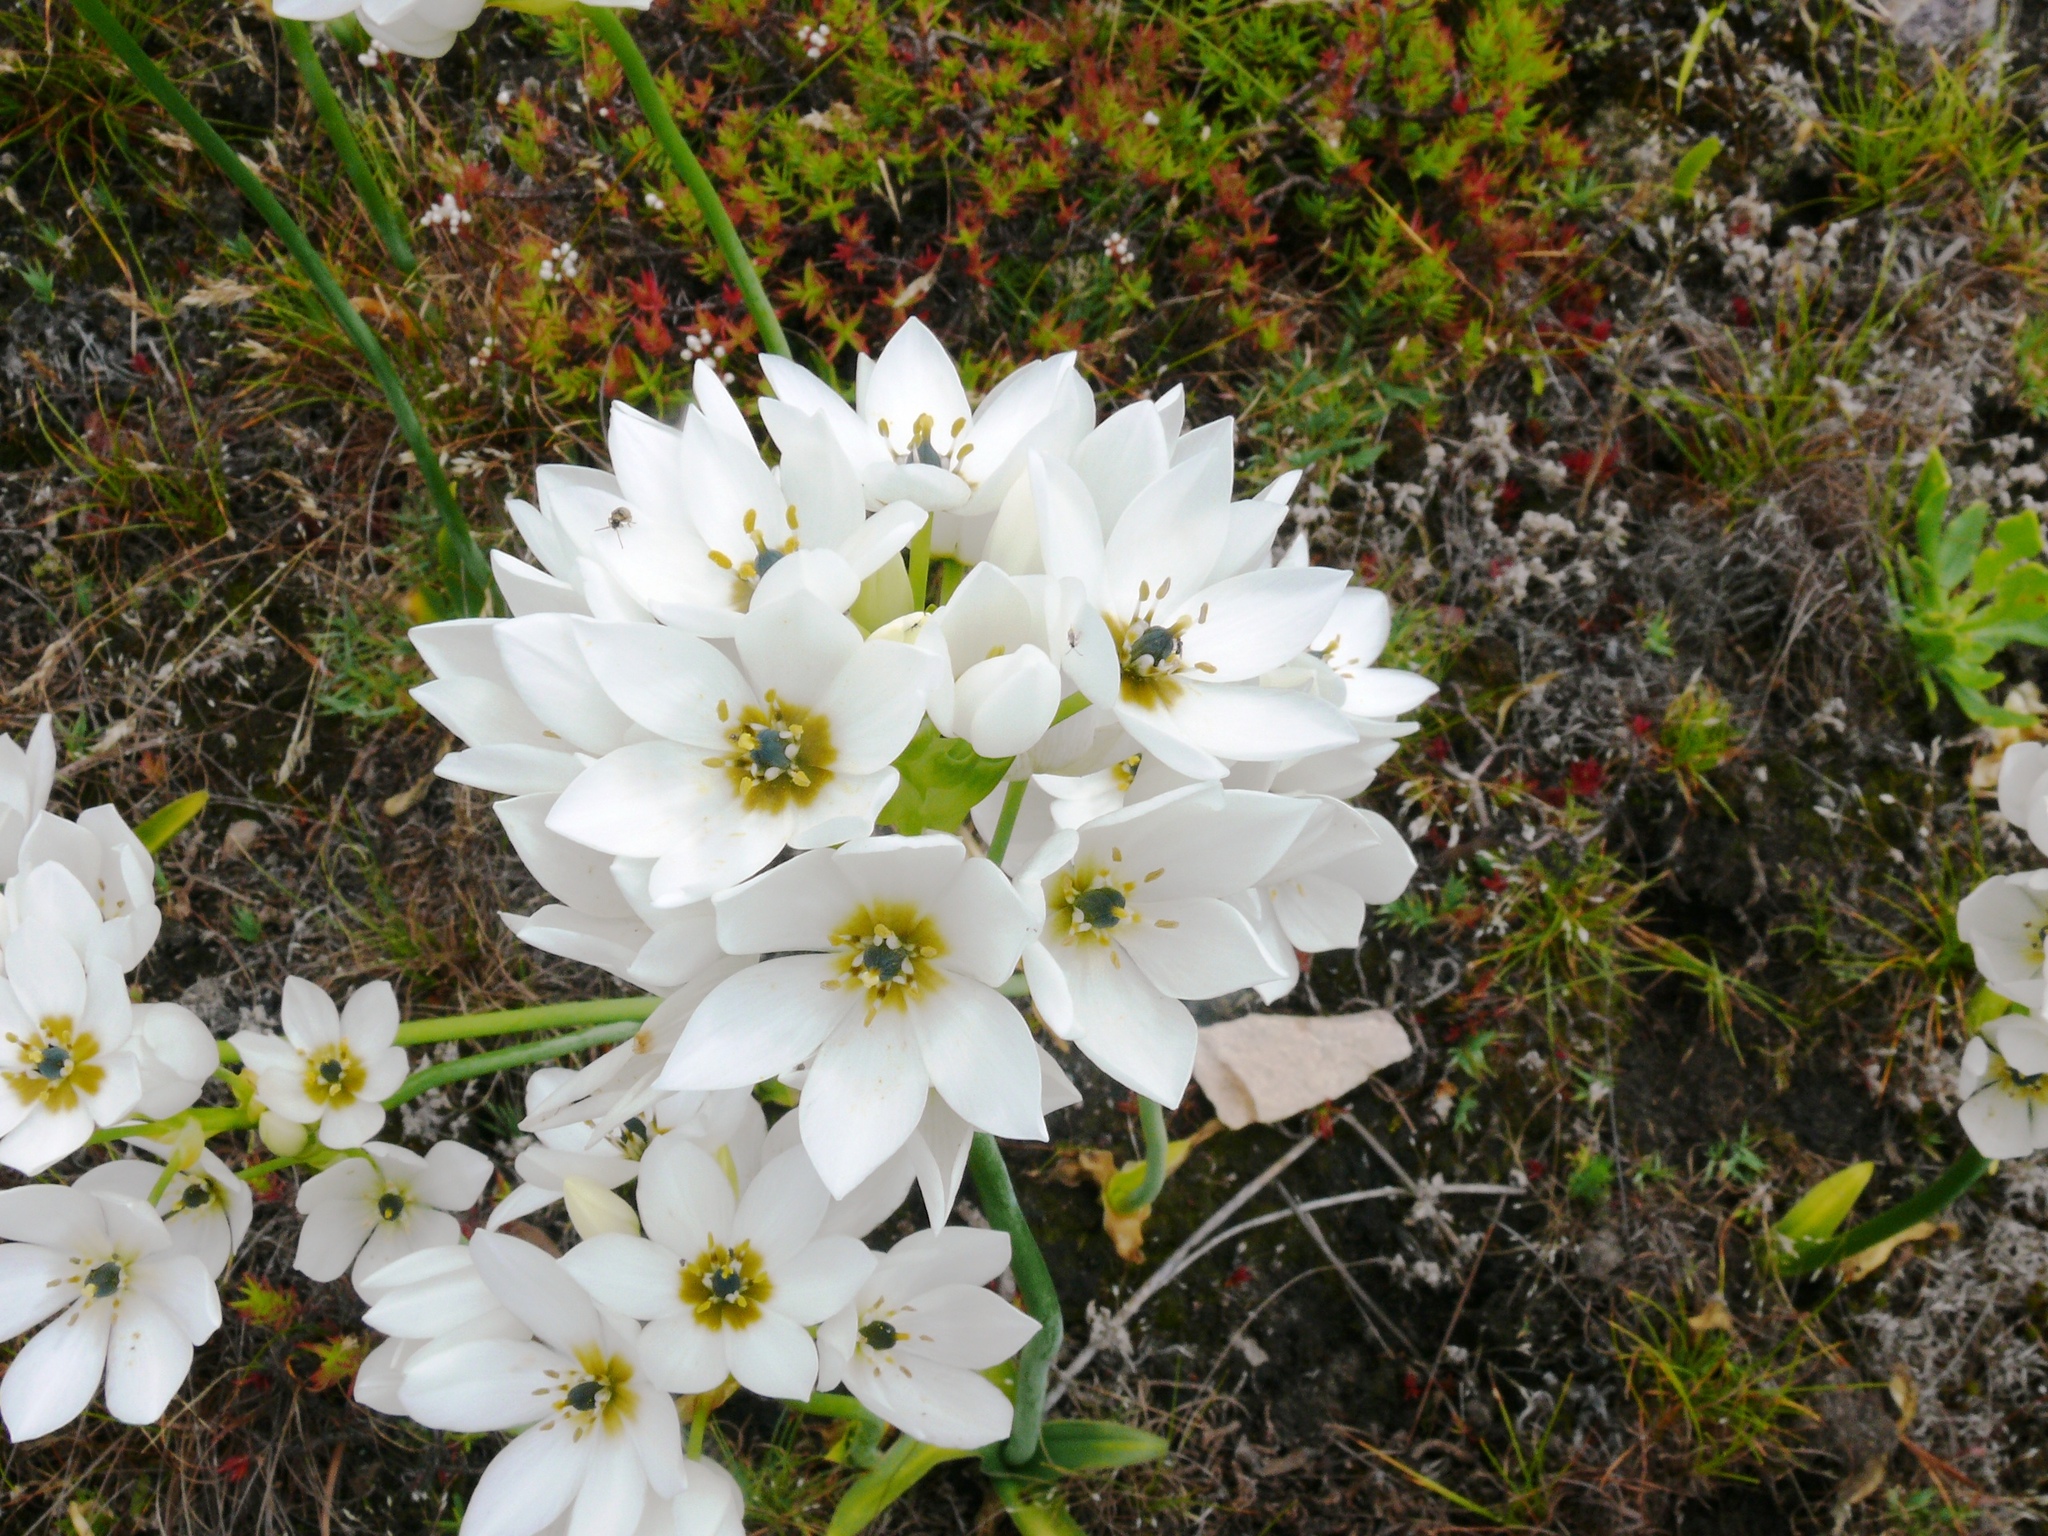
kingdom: Plantae
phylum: Tracheophyta
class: Liliopsida
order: Asparagales
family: Asparagaceae
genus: Ornithogalum
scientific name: Ornithogalum dubium
